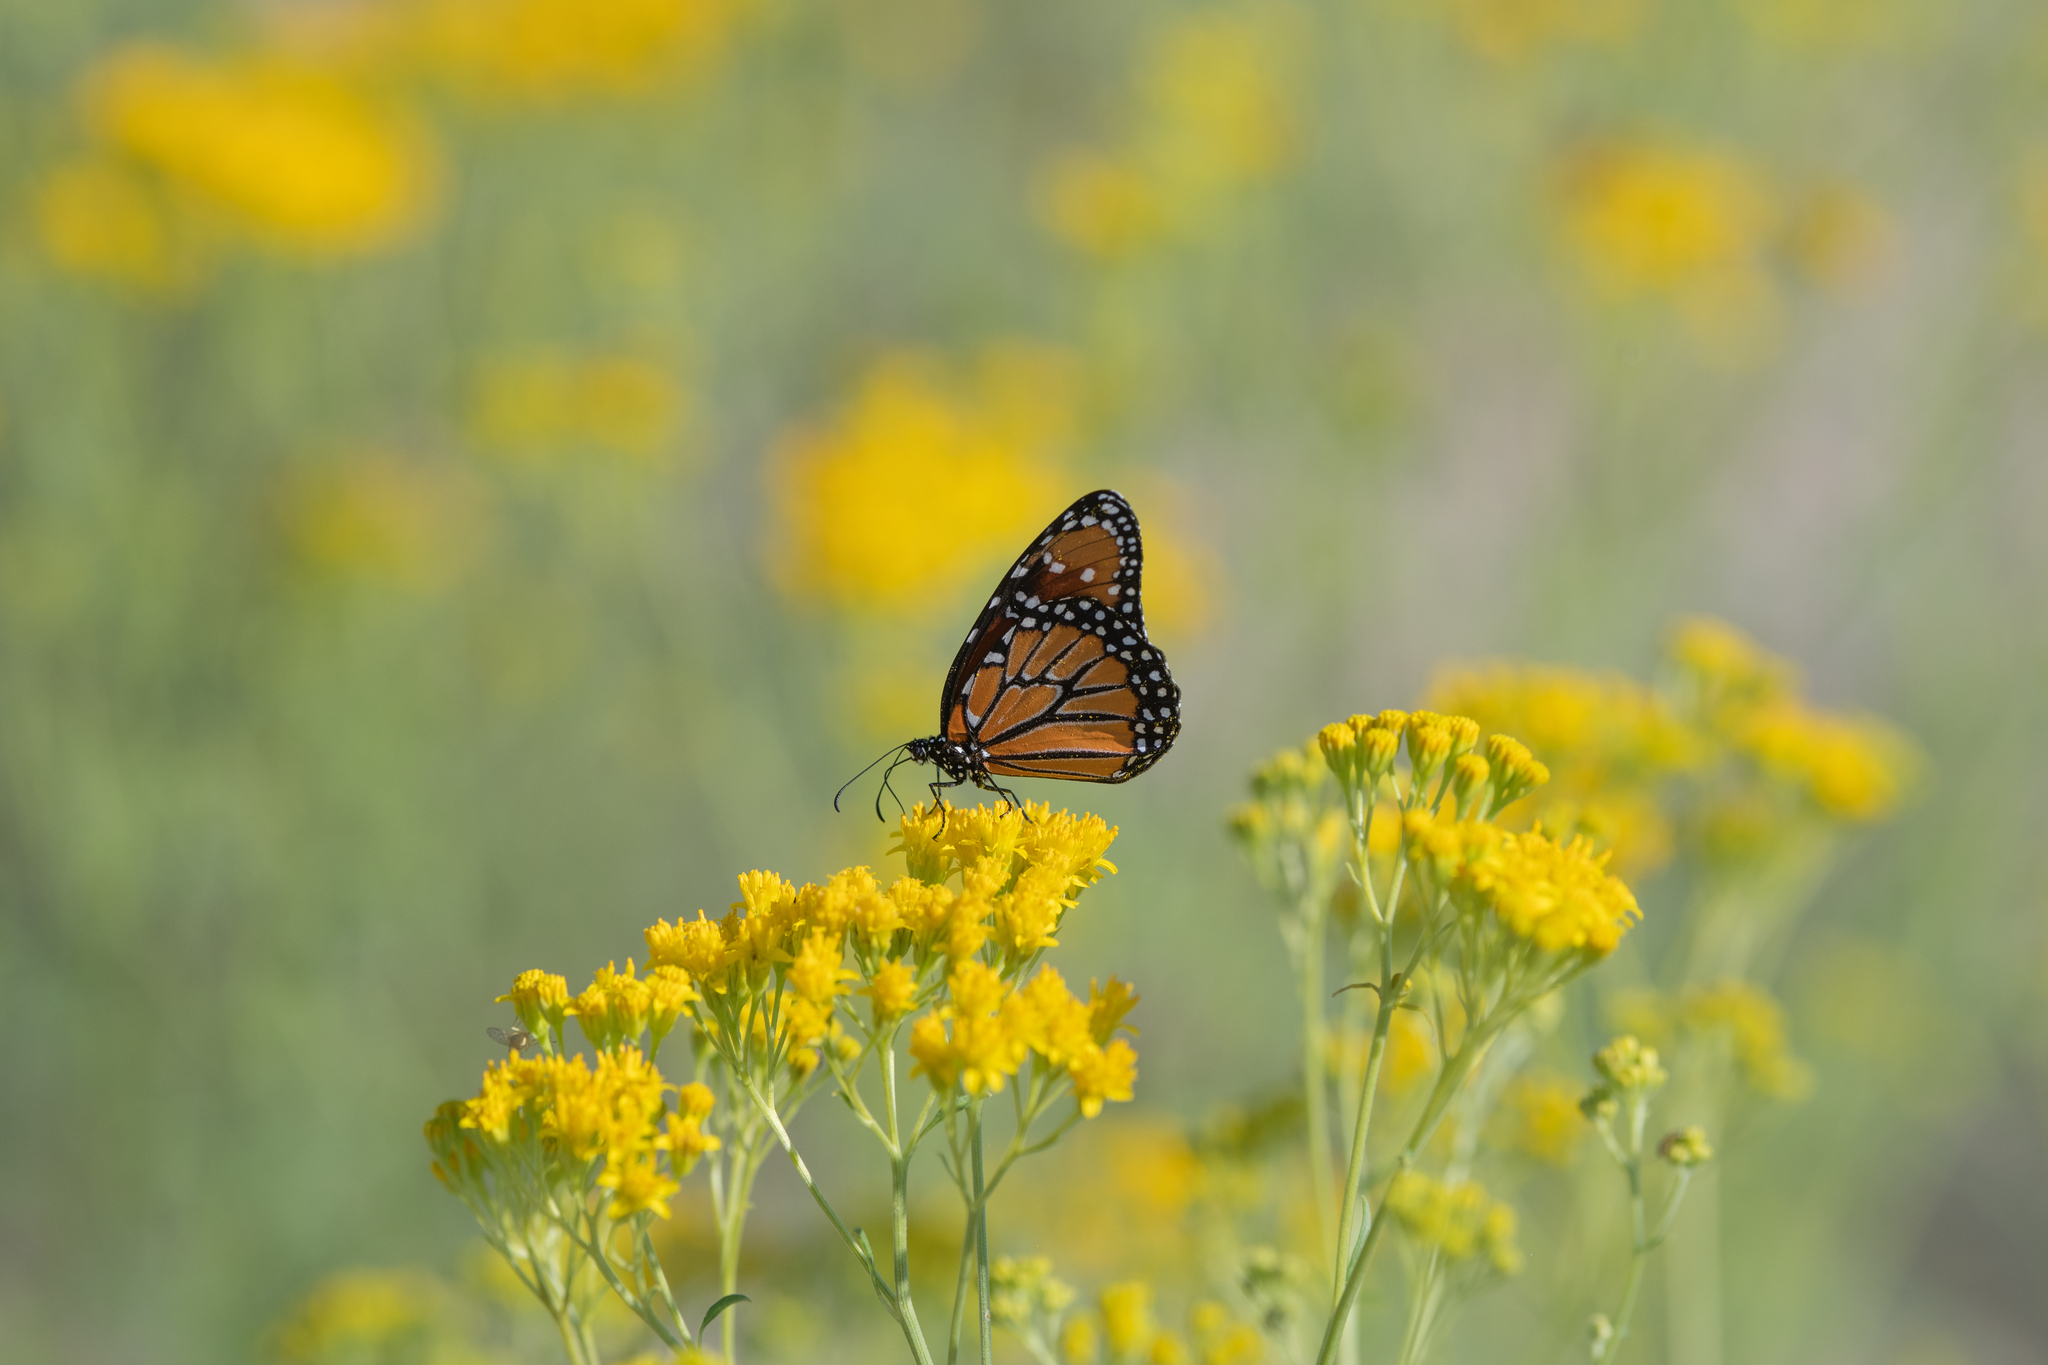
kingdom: Animalia
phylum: Arthropoda
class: Insecta
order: Lepidoptera
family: Nymphalidae
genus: Danaus
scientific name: Danaus gilippus
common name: Queen
